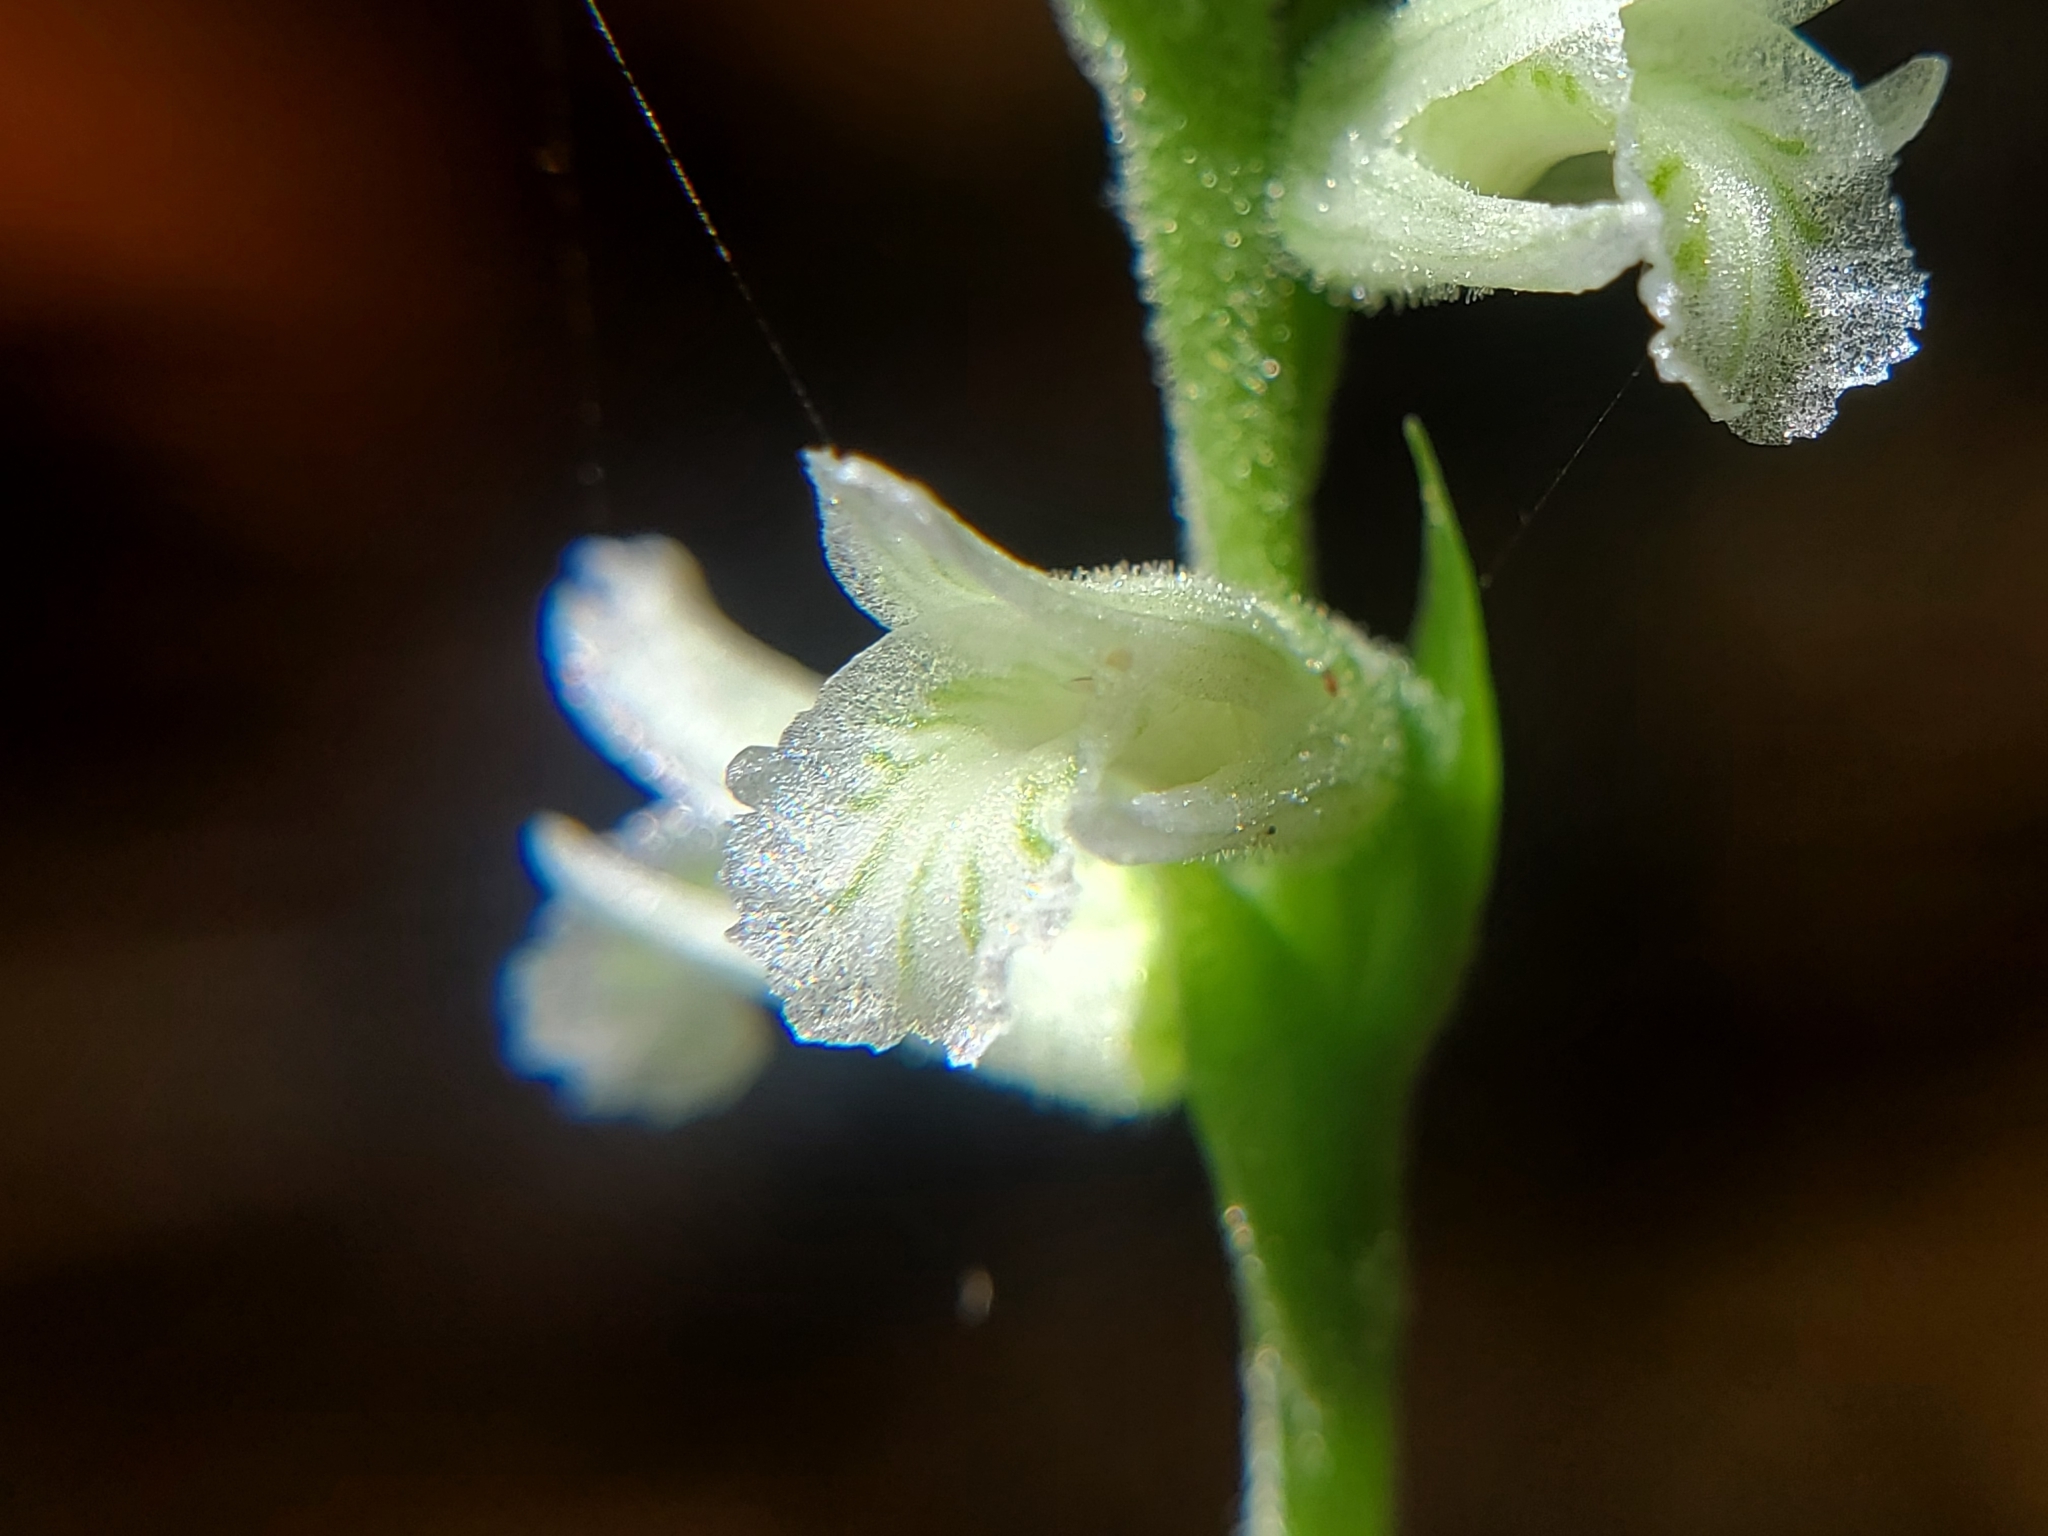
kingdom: Plantae
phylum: Tracheophyta
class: Liliopsida
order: Asparagales
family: Orchidaceae
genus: Spiranthes
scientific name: Spiranthes praecox
